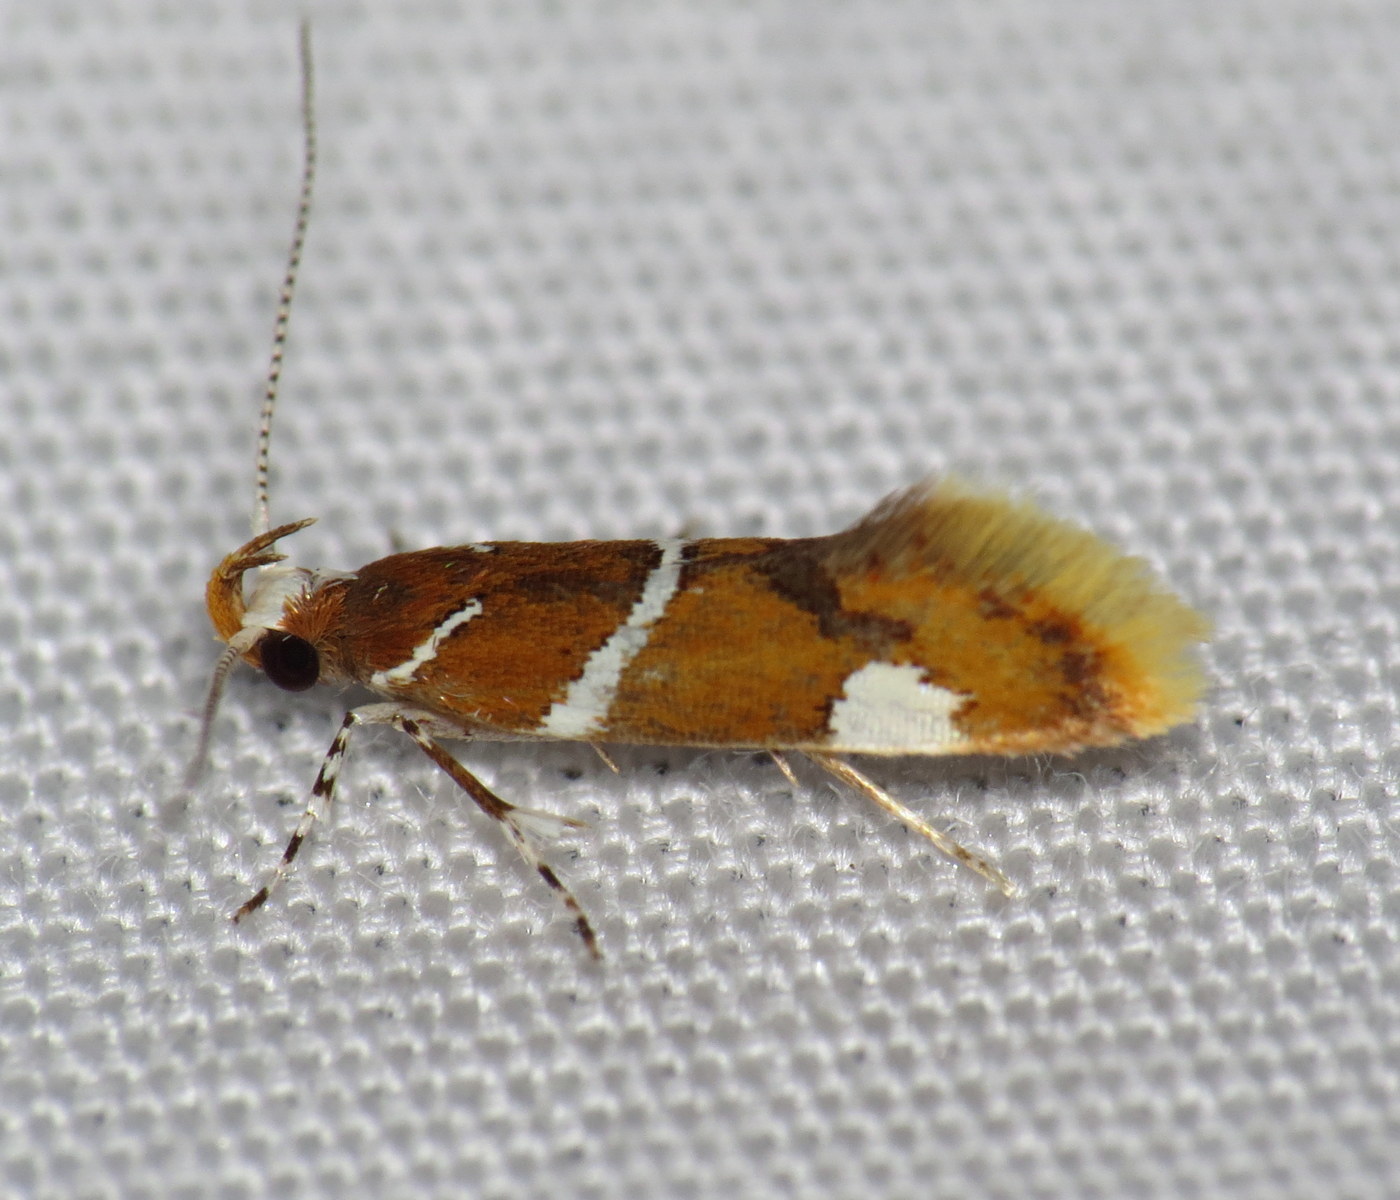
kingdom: Animalia
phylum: Arthropoda
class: Insecta
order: Lepidoptera
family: Oecophoridae
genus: Promalactis
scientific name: Promalactis suzukiella
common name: Moth
